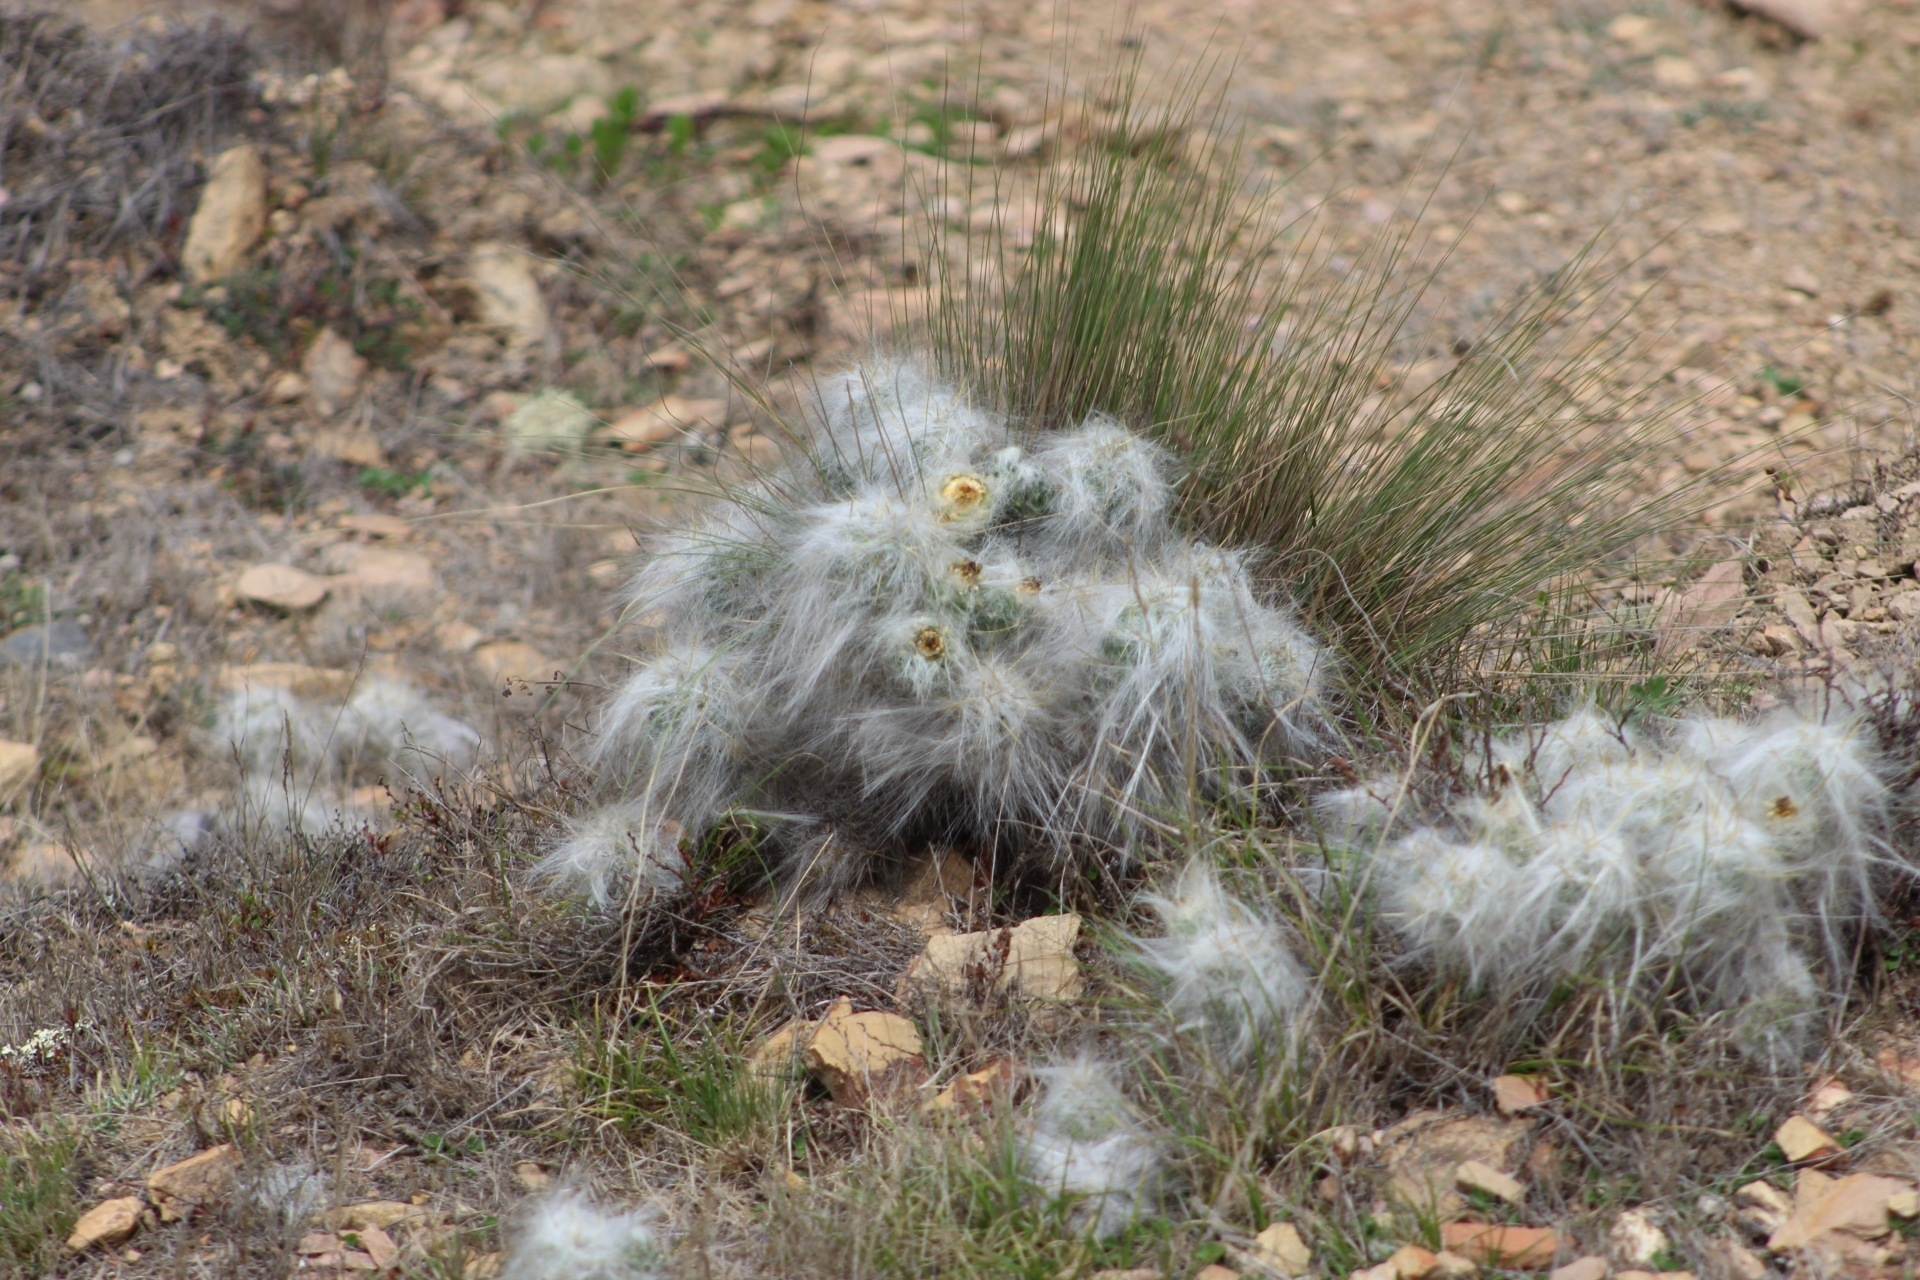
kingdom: Plantae
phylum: Tracheophyta
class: Magnoliopsida
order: Caryophyllales
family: Cactaceae
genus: Austrocylindropuntia
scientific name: Austrocylindropuntia floccosa
